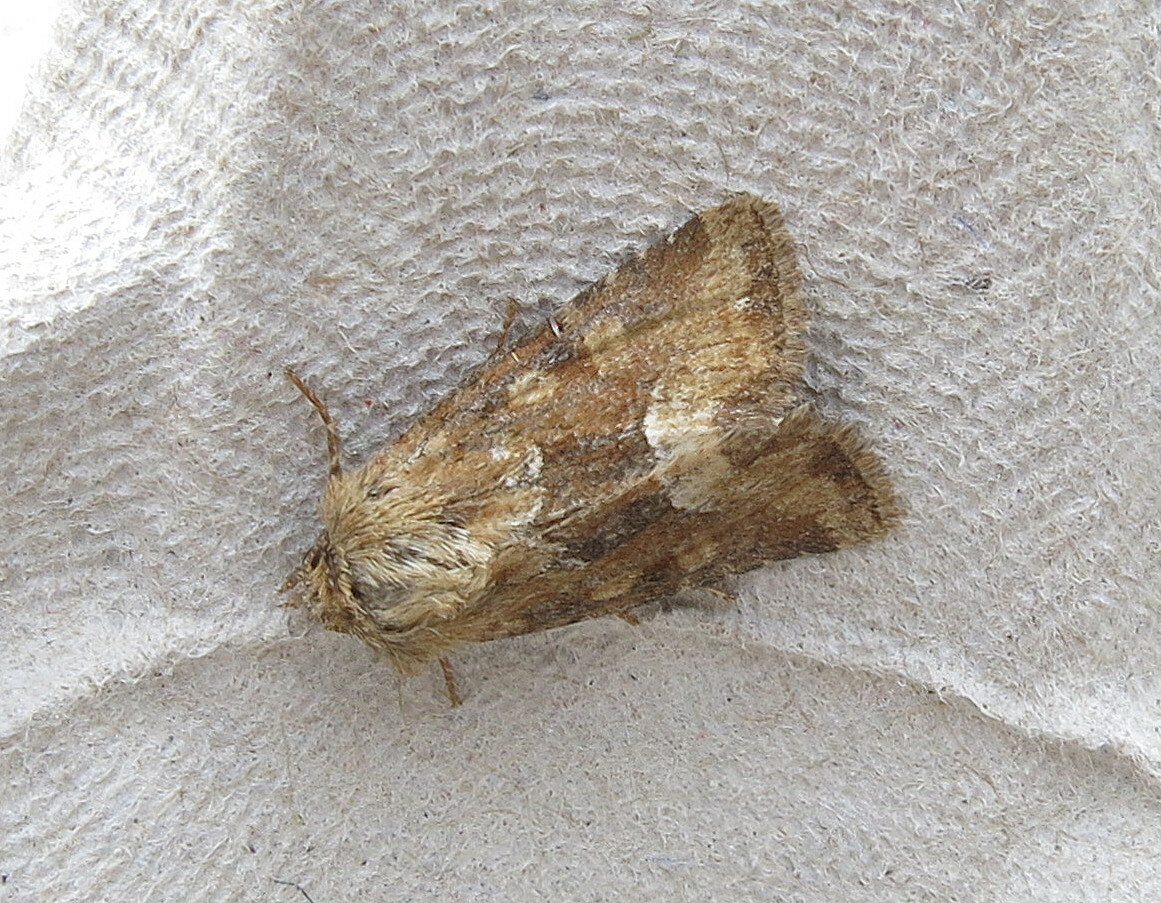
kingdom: Animalia
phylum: Arthropoda
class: Insecta
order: Lepidoptera
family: Noctuidae
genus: Oligia
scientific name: Oligia fasciuncula
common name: Middle-barred minor
